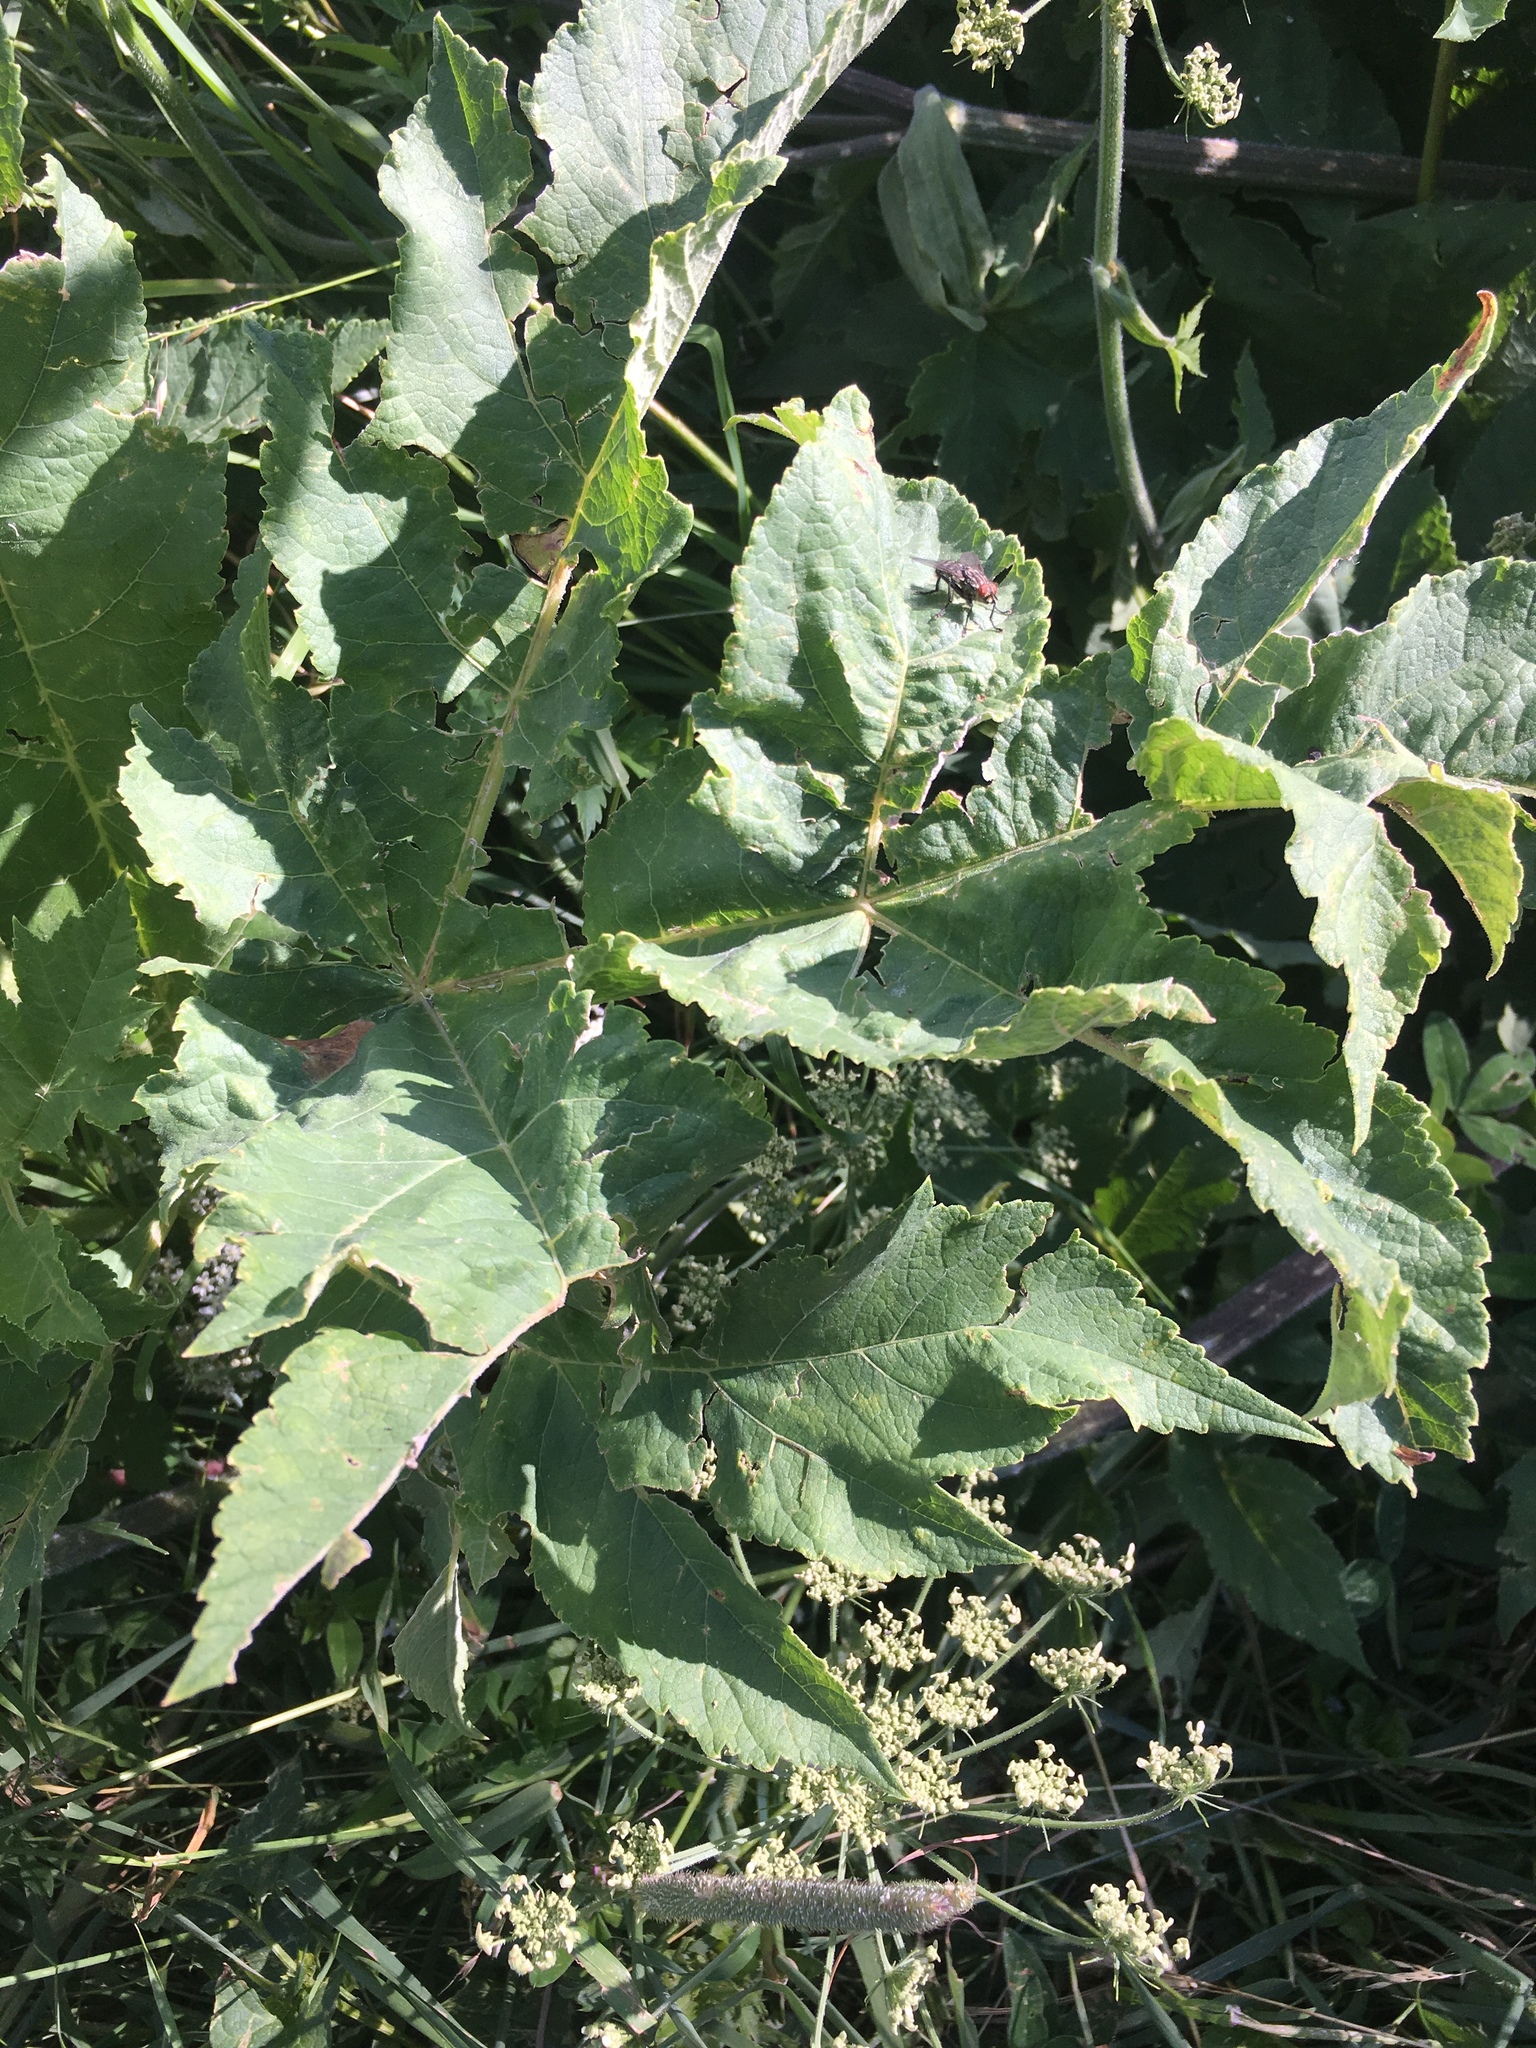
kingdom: Plantae
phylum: Tracheophyta
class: Magnoliopsida
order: Apiales
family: Apiaceae
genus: Heracleum
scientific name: Heracleum sphondylium
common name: Hogweed
